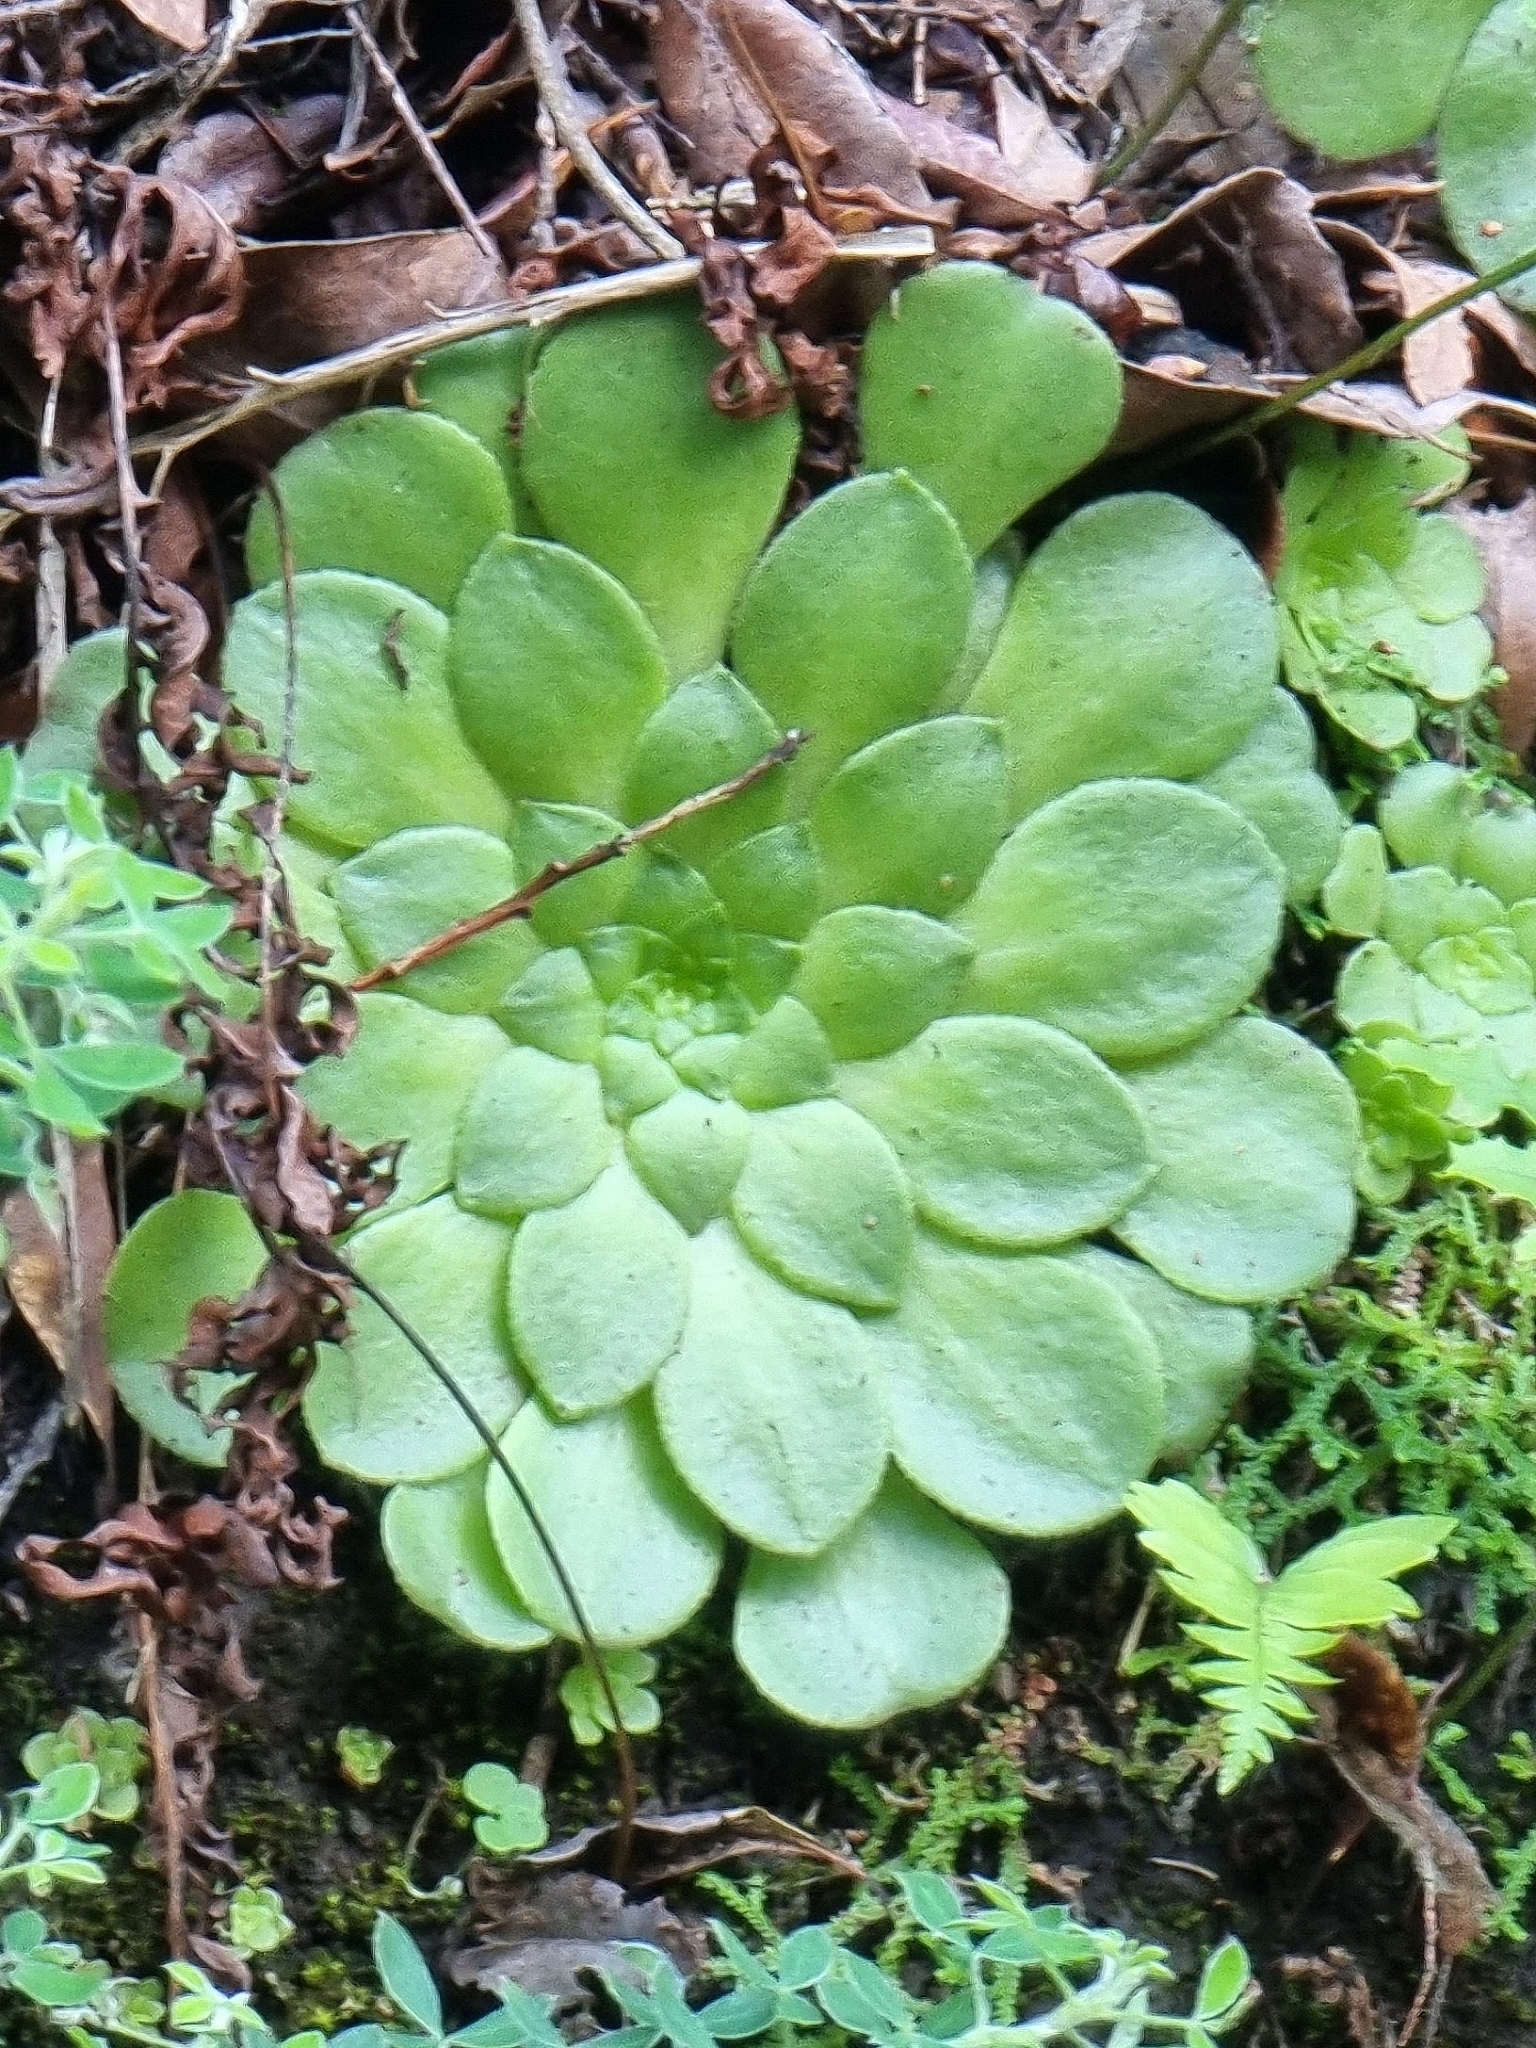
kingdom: Plantae
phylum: Tracheophyta
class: Magnoliopsida
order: Saxifragales
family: Crassulaceae
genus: Aeonium
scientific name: Aeonium glandulosum
